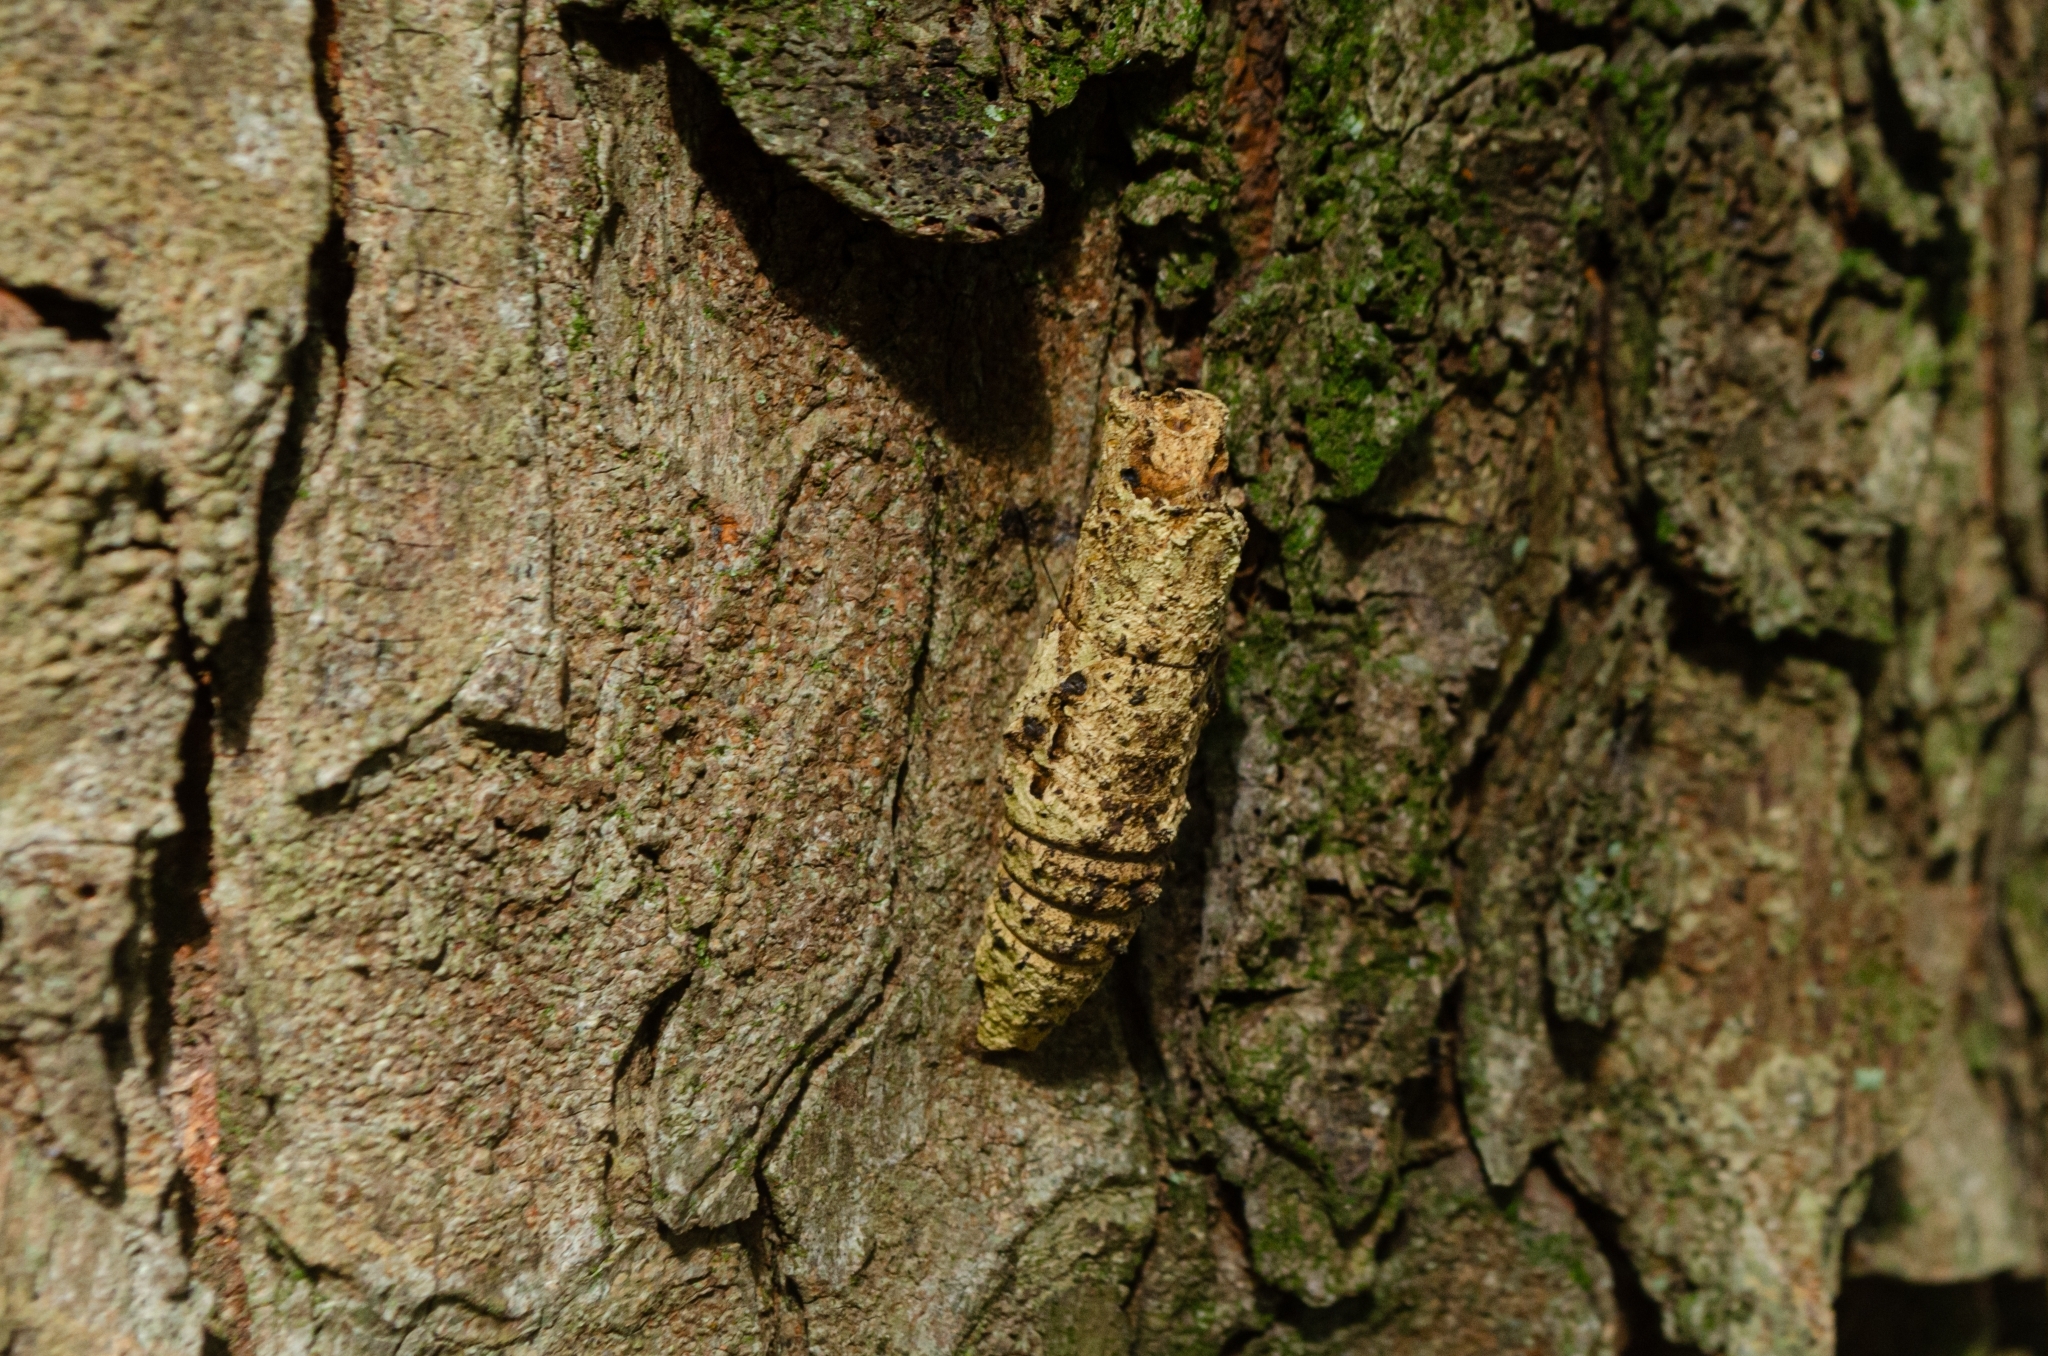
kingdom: Animalia
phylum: Arthropoda
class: Insecta
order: Lepidoptera
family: Papilionidae
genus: Papilio
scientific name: Papilio anchisiades
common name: Idaes swallowtail
